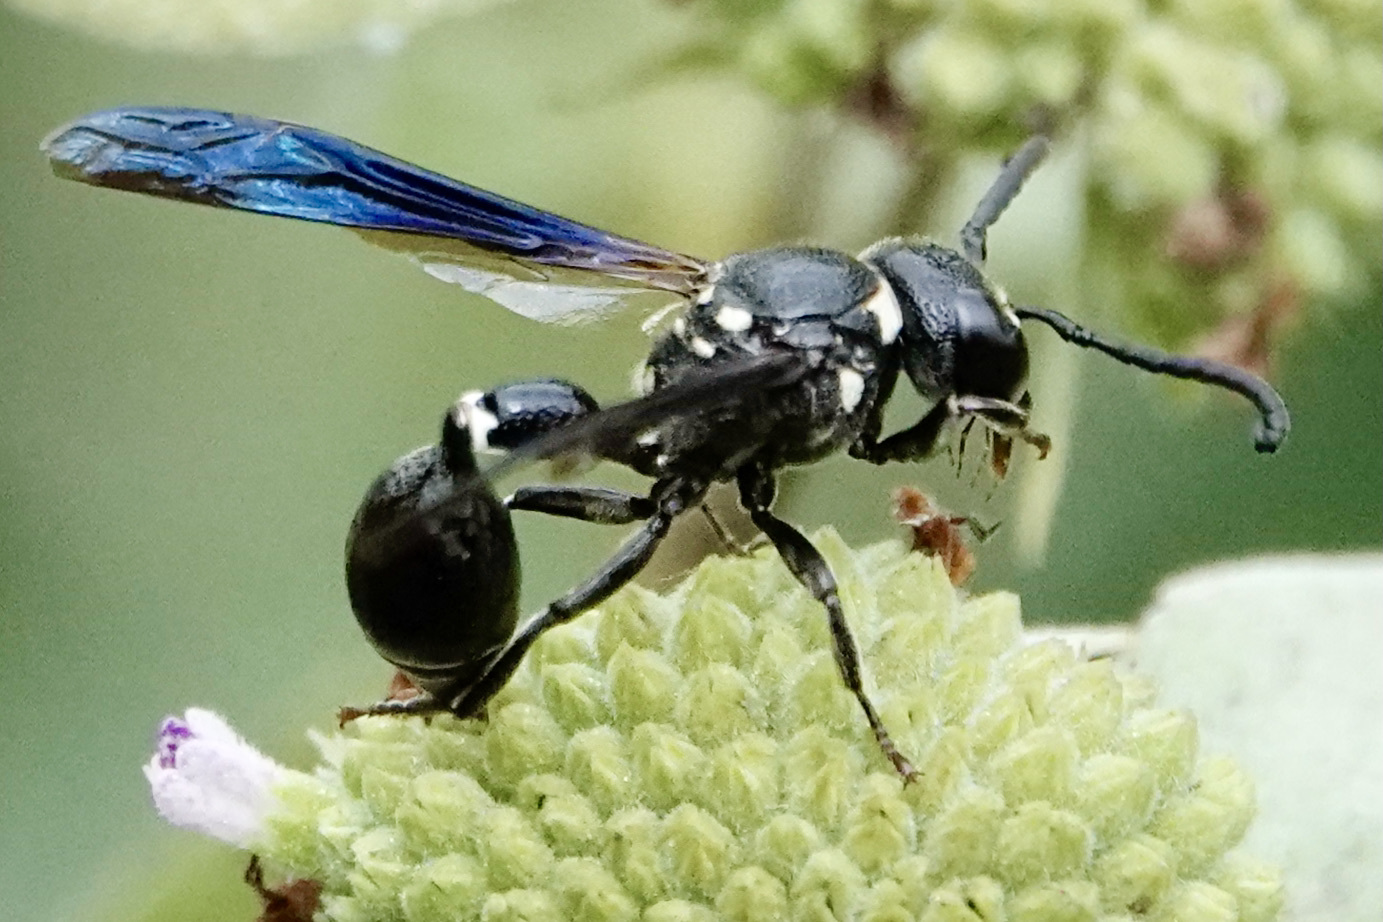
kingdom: Animalia
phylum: Arthropoda
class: Insecta
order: Hymenoptera
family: Eumenidae
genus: Zethus
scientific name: Zethus spinipes
